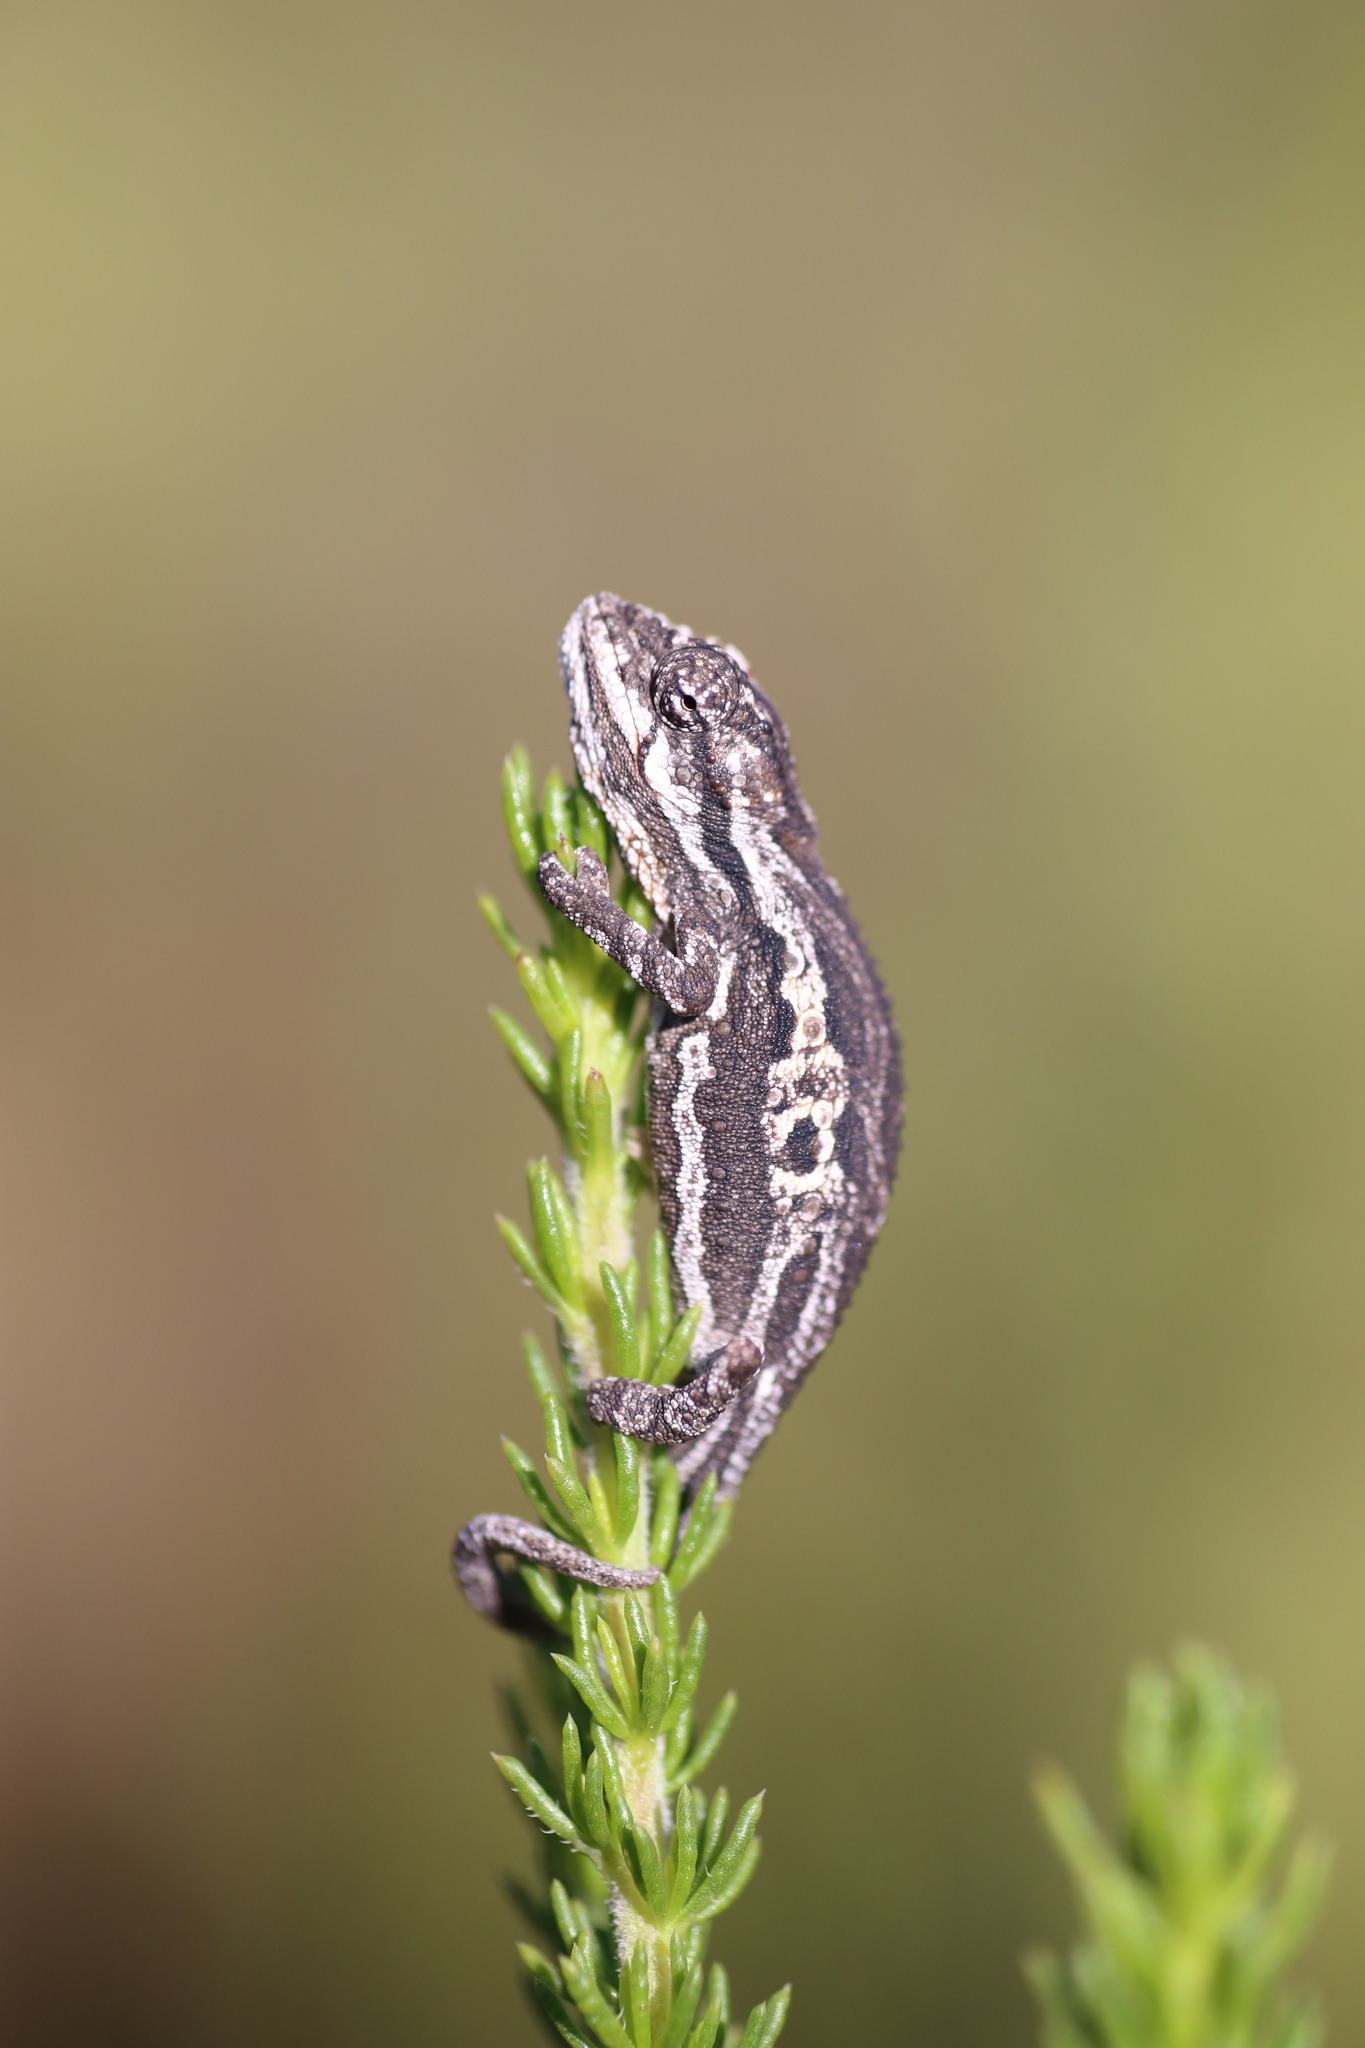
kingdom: Animalia
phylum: Chordata
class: Squamata
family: Chamaeleonidae
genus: Bradypodion
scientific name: Bradypodion atromontanum
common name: Swartberg dwarf chameleon
